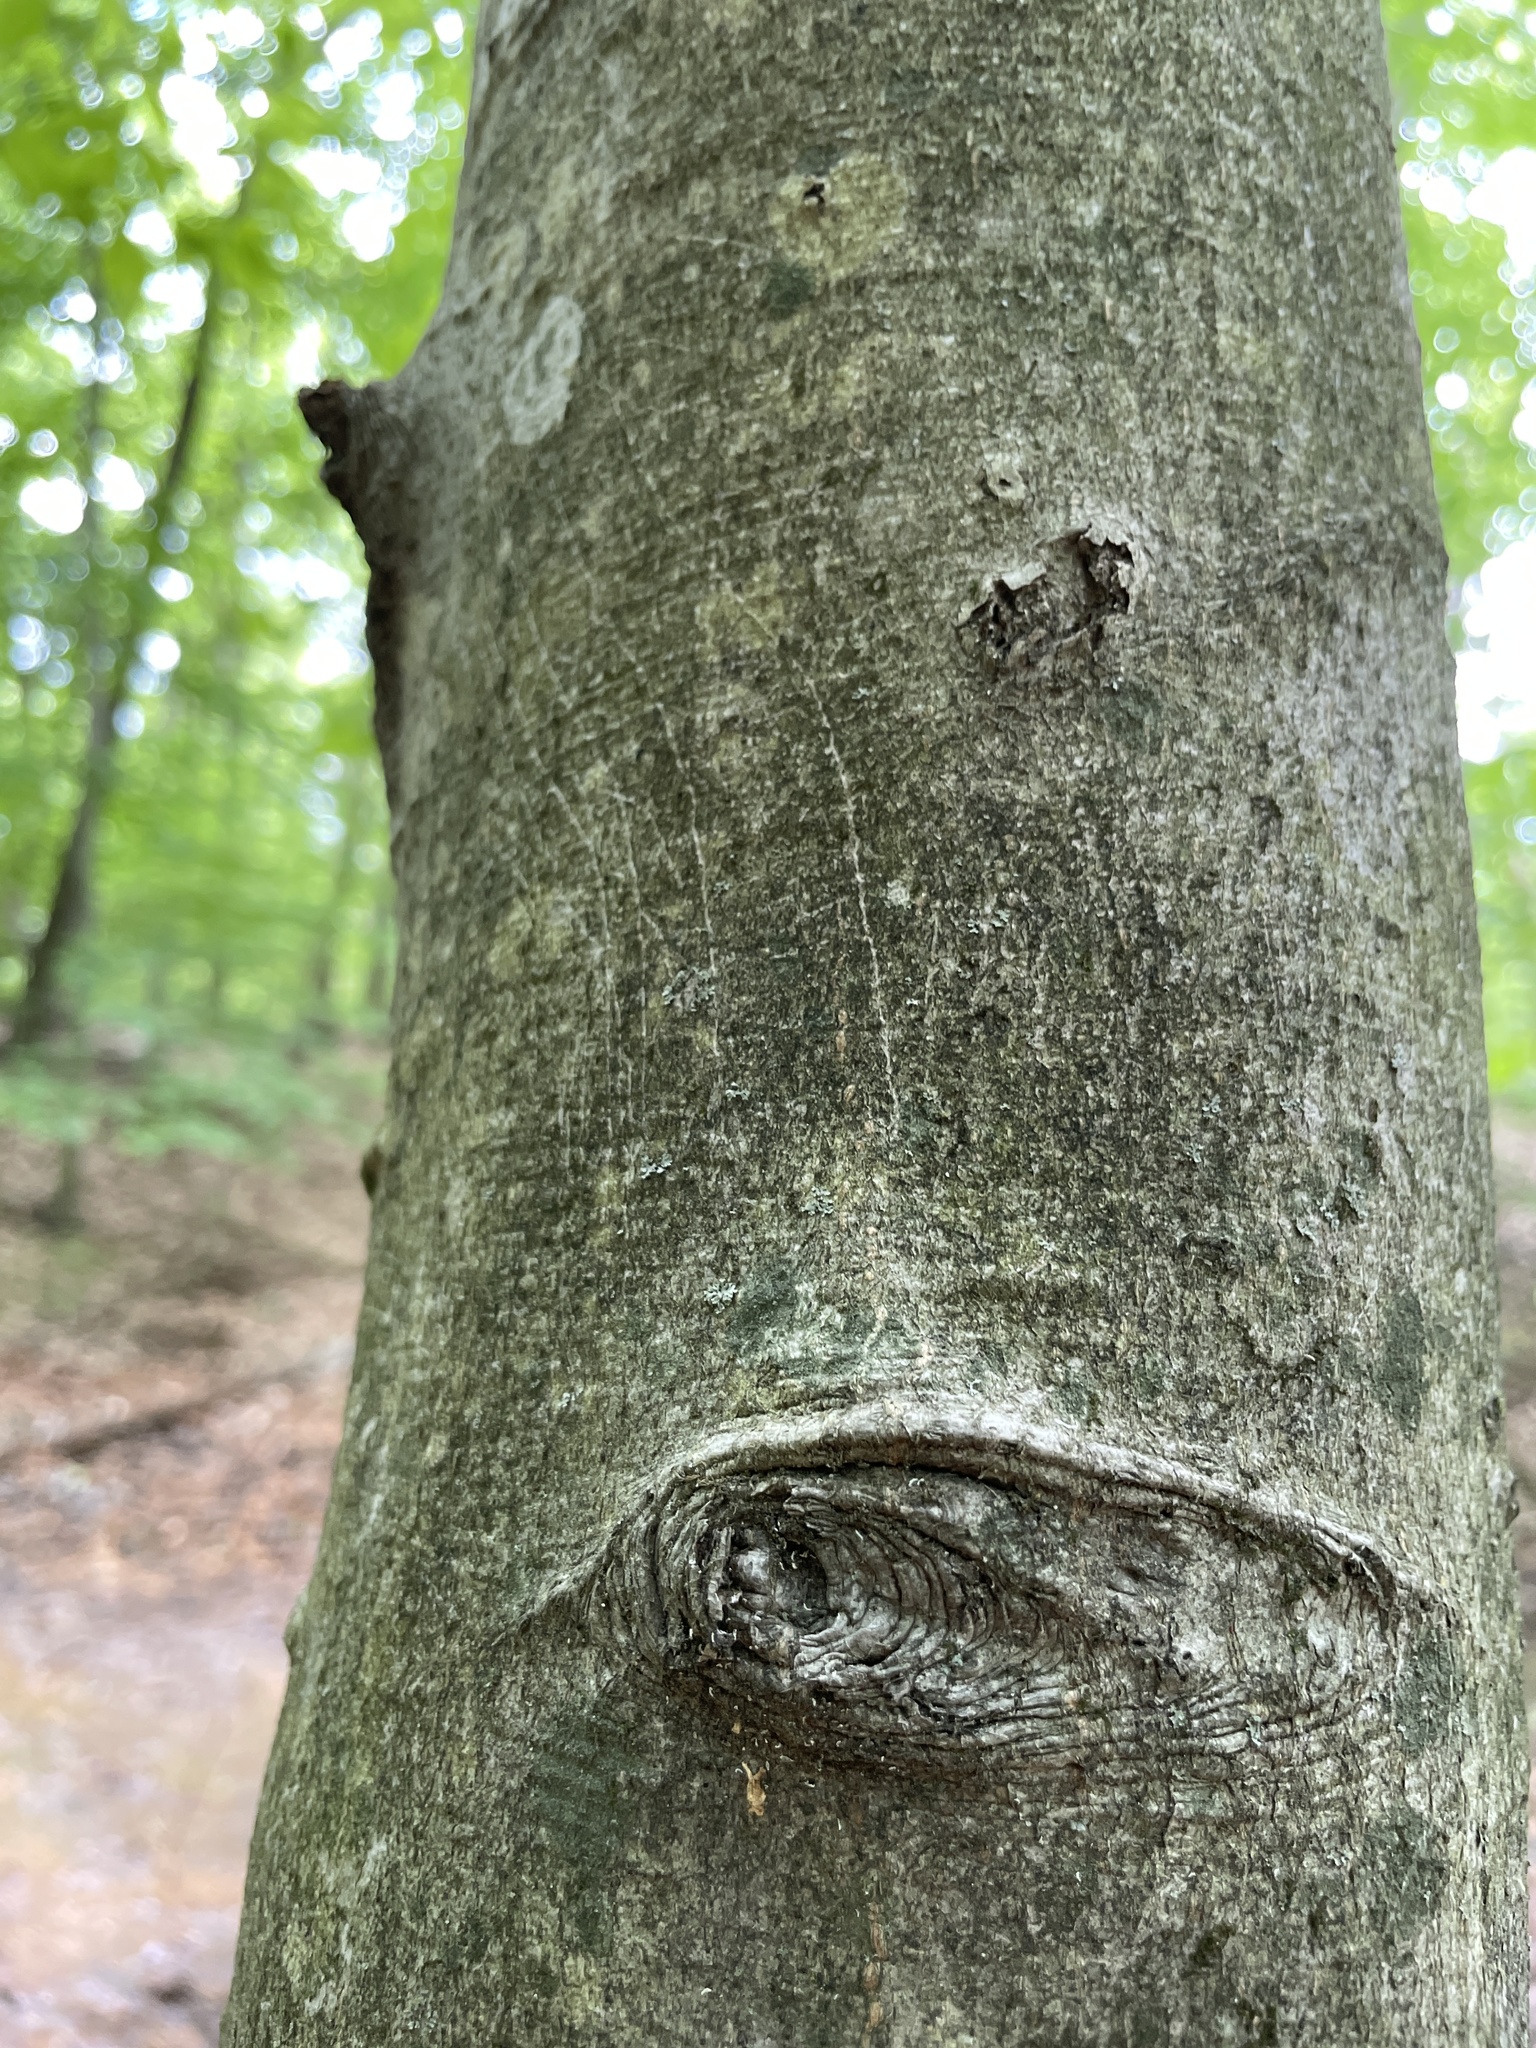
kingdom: Plantae
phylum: Tracheophyta
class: Magnoliopsida
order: Fagales
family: Fagaceae
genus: Fagus
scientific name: Fagus grandifolia
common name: American beech
